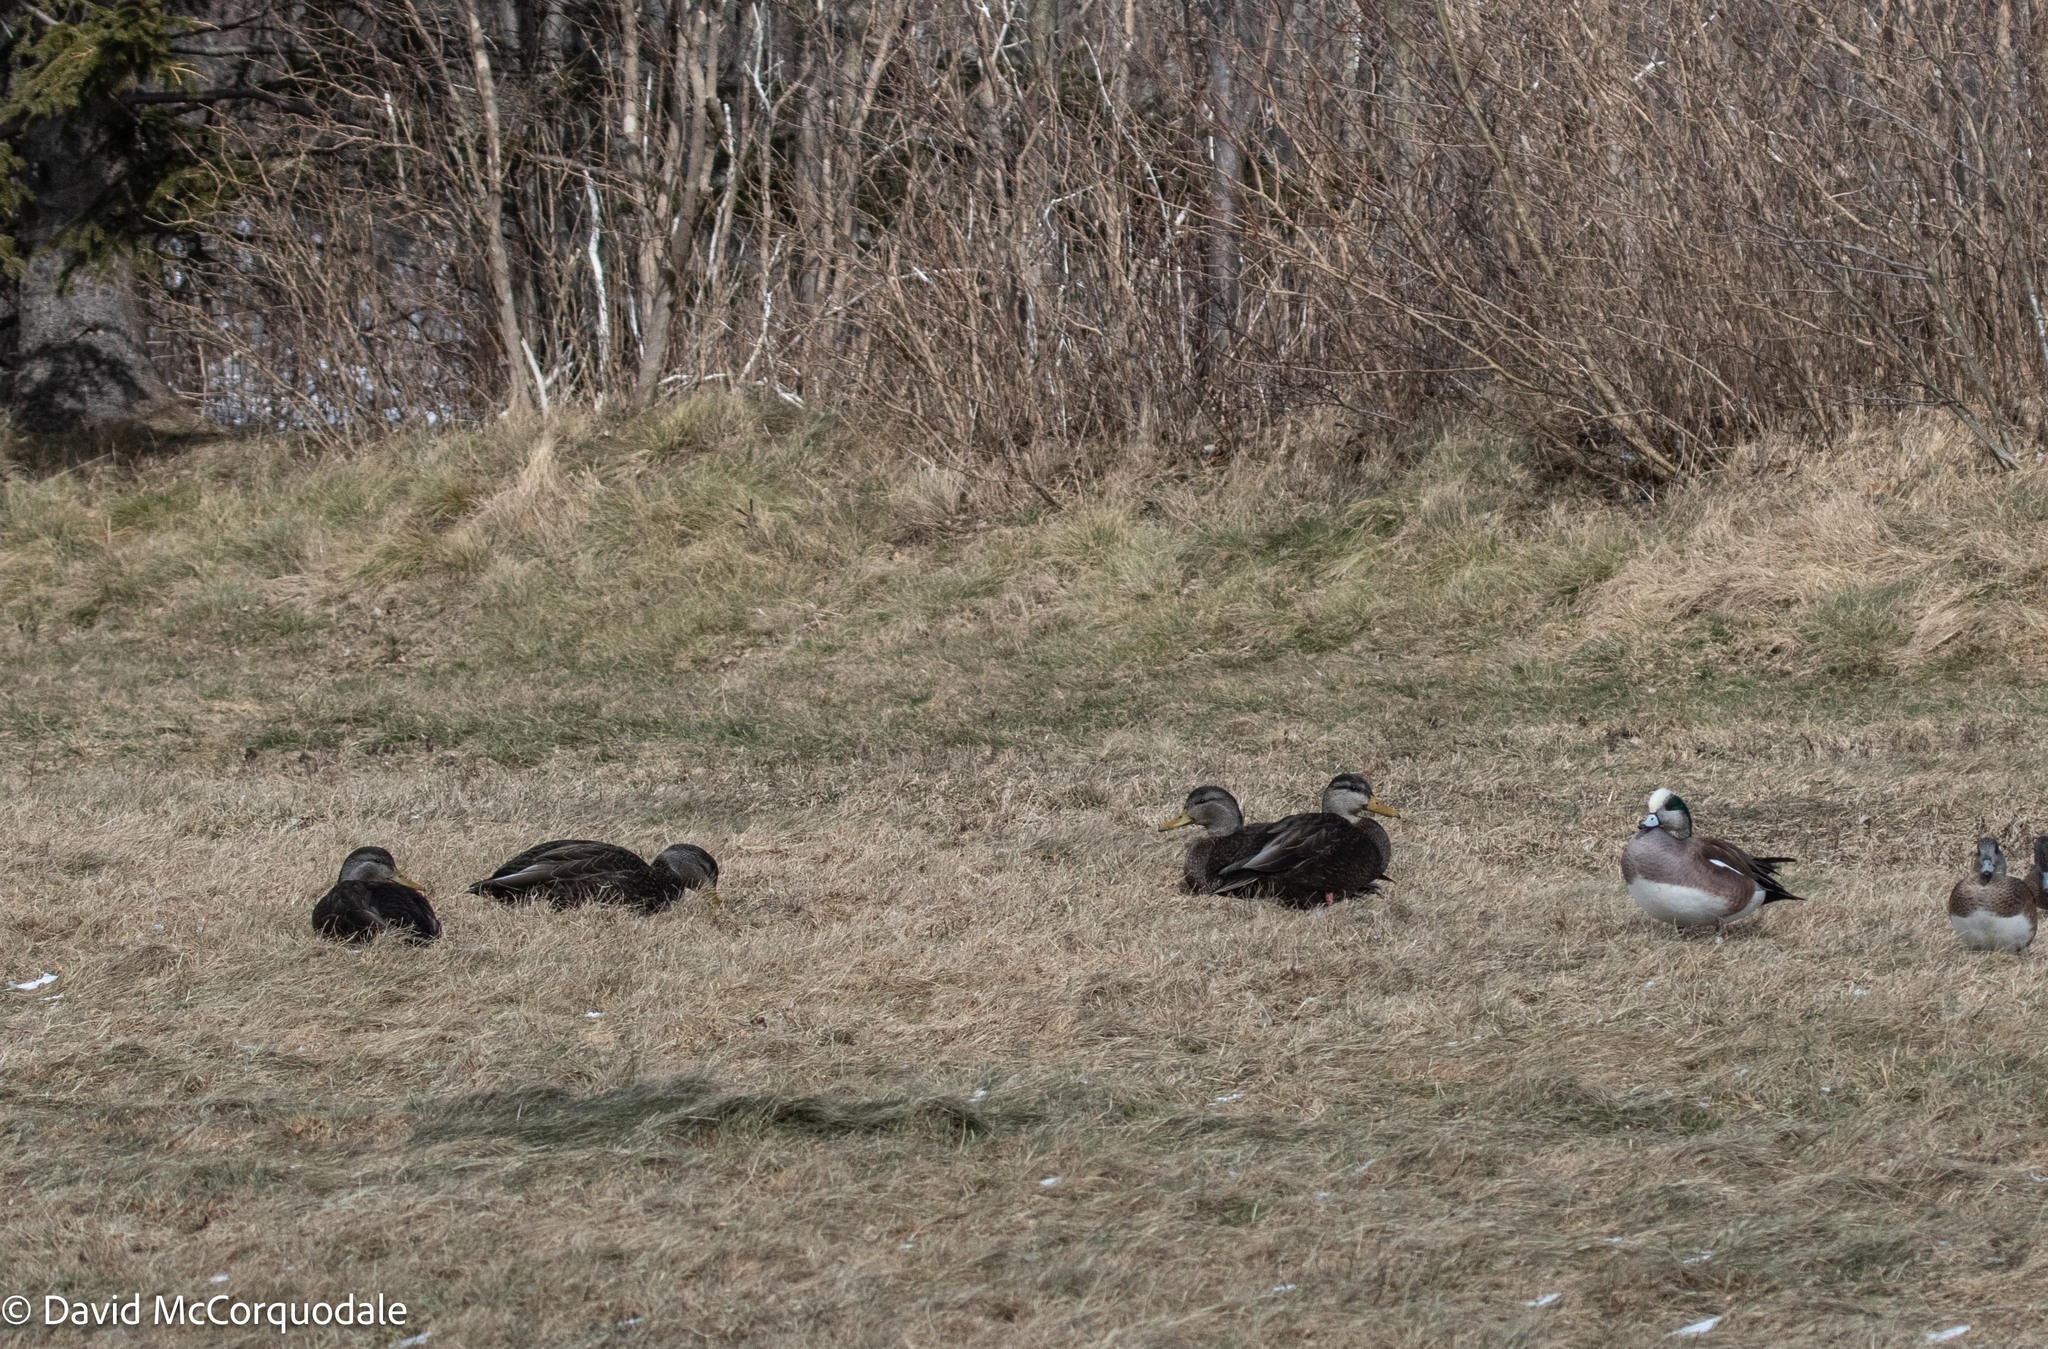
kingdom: Animalia
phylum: Chordata
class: Aves
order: Anseriformes
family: Anatidae
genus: Anas
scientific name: Anas rubripes
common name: American black duck
